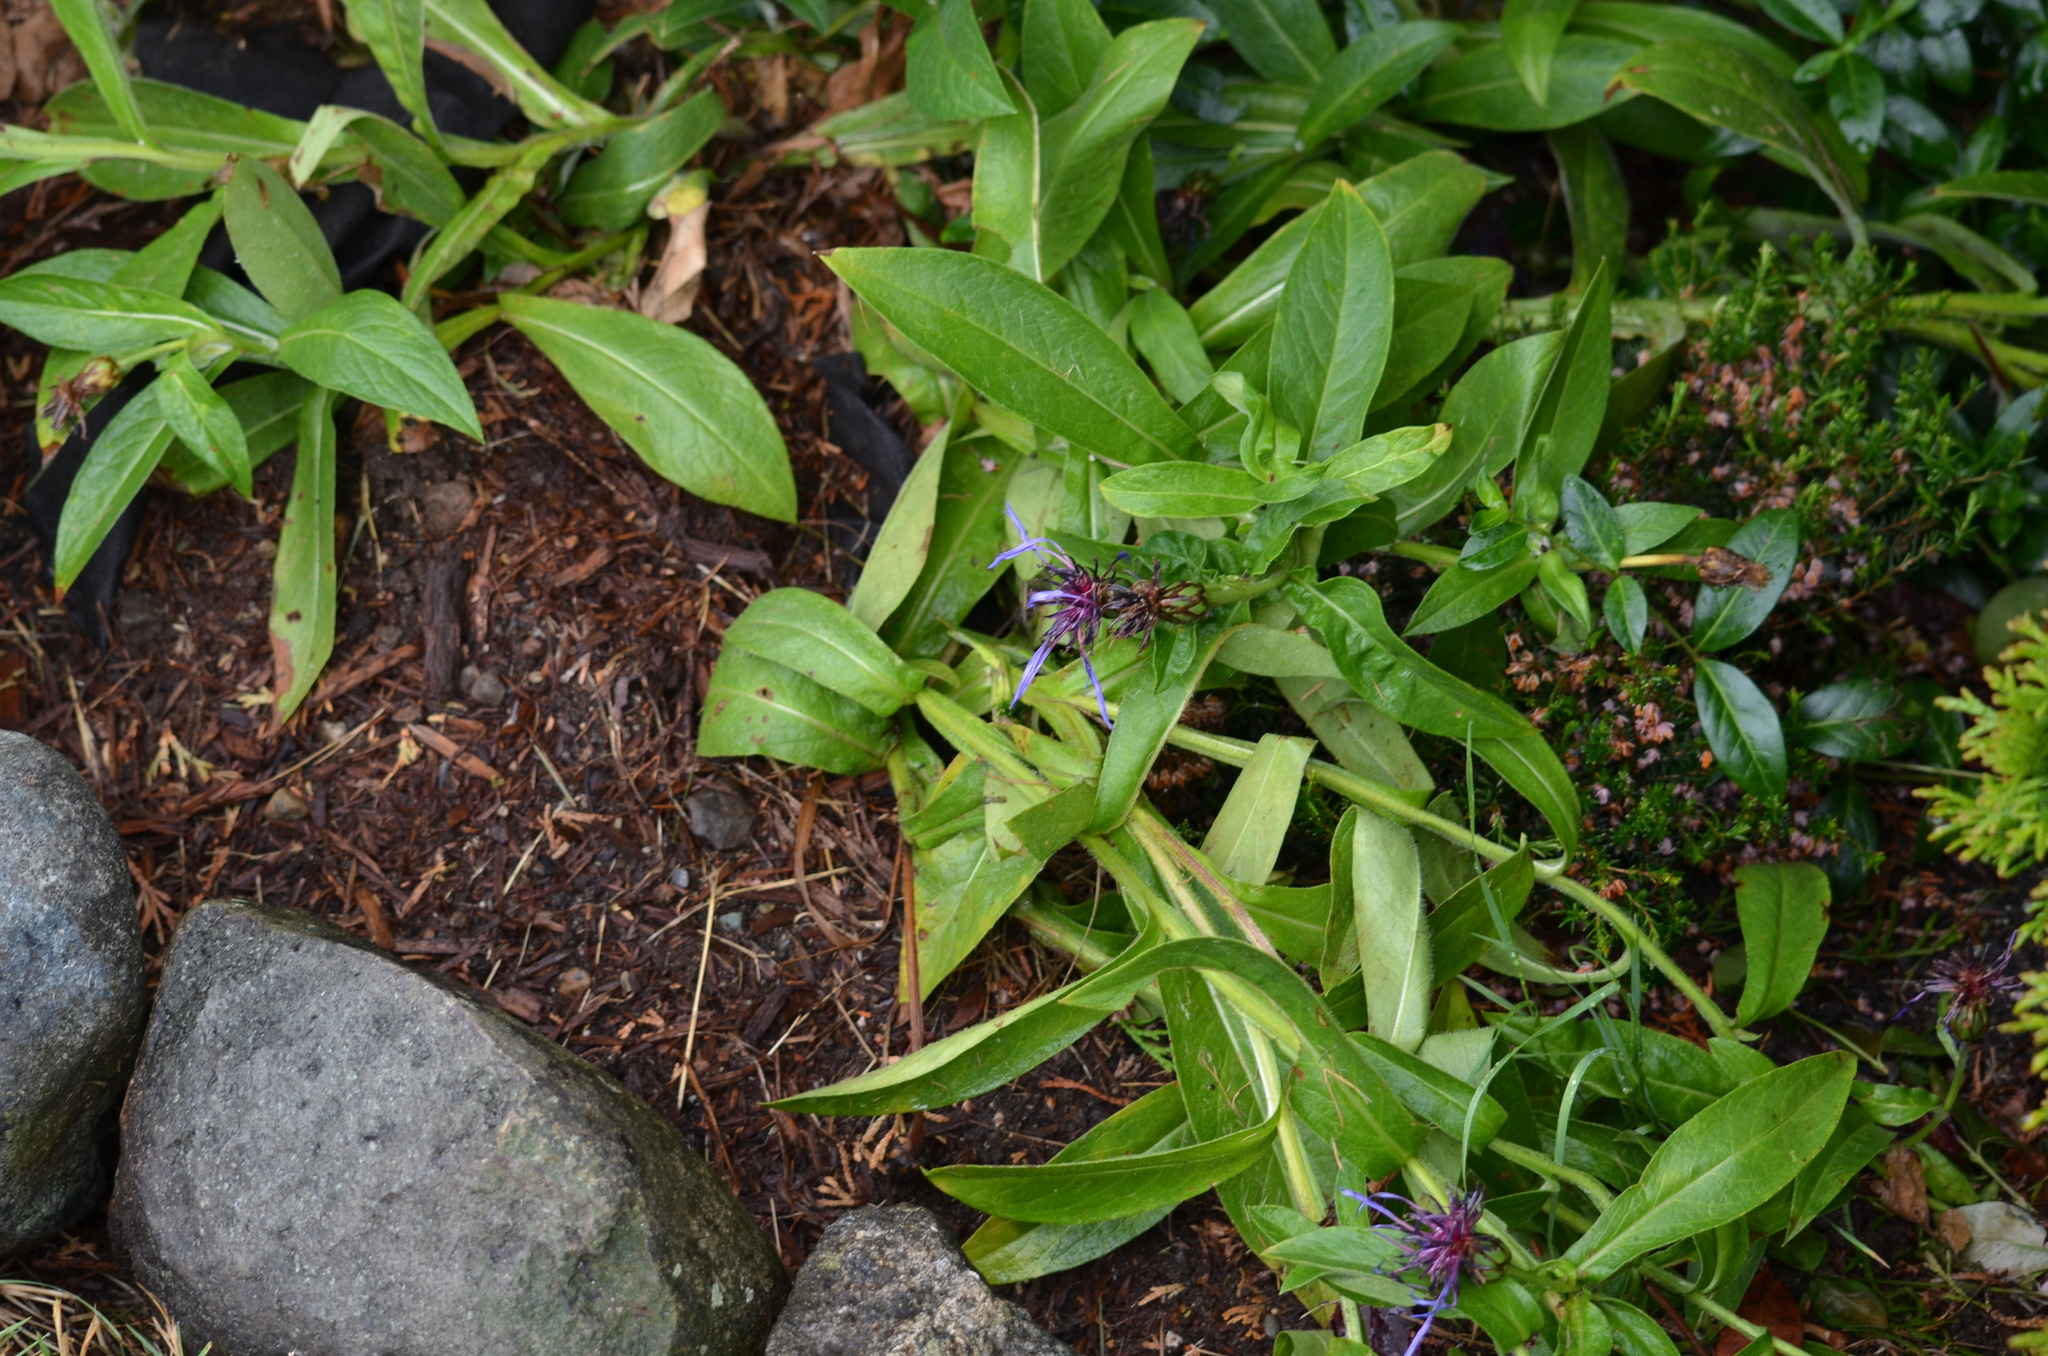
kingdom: Plantae
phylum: Tracheophyta
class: Magnoliopsida
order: Asterales
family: Asteraceae
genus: Centaurea
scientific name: Centaurea montana
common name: Perennial cornflower
